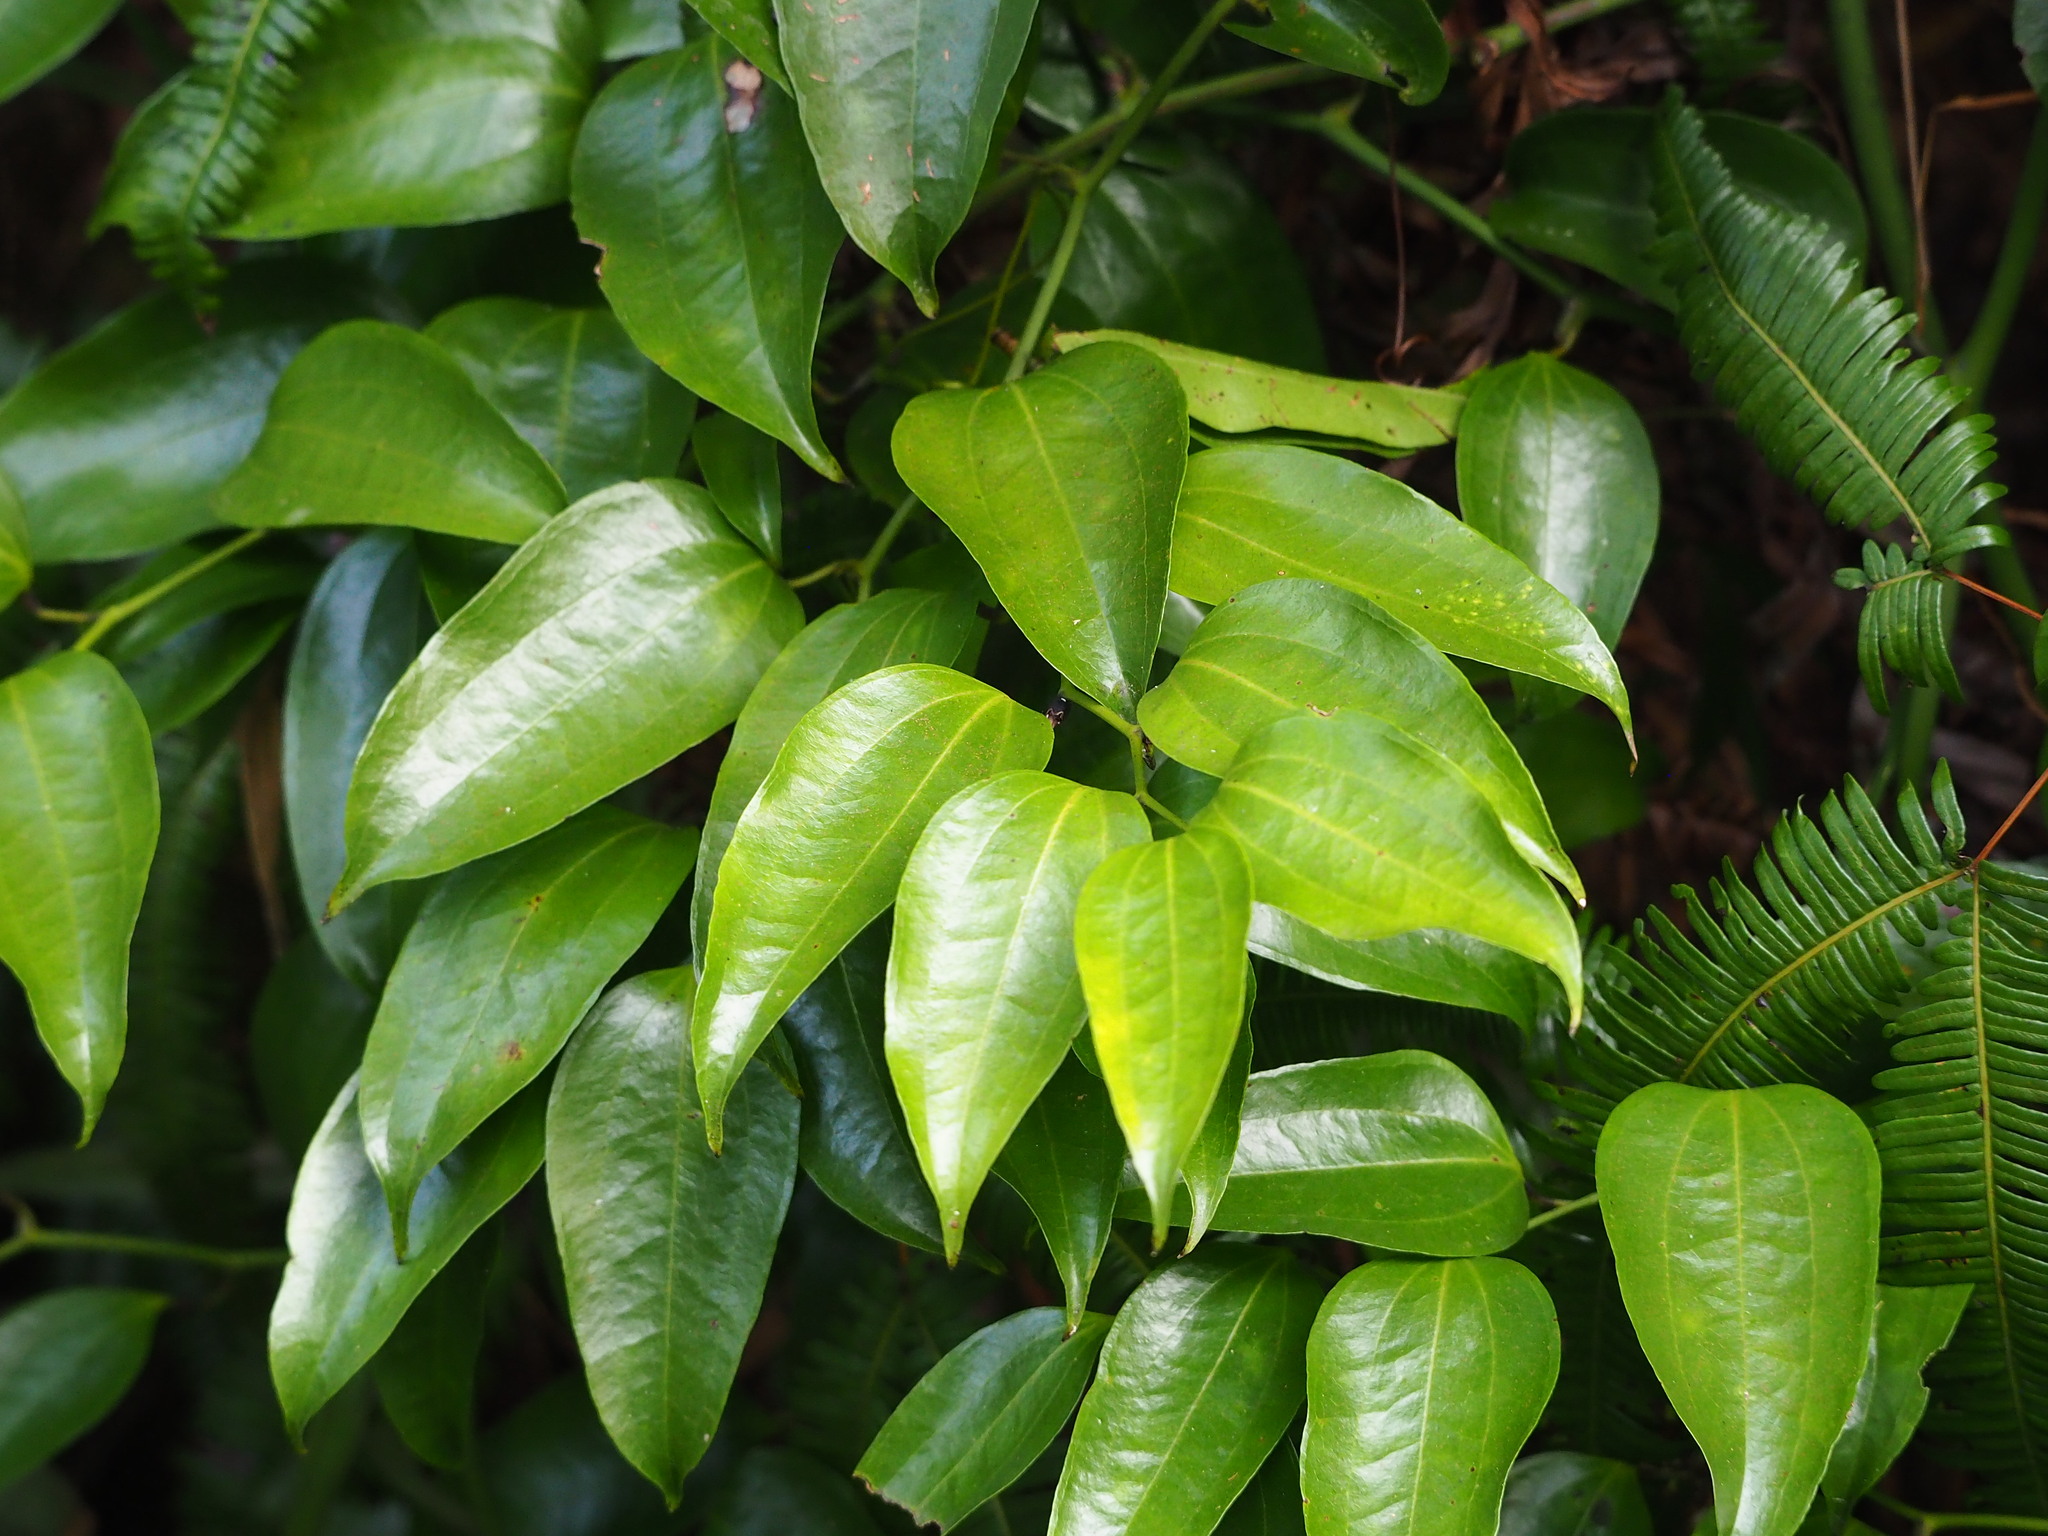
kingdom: Plantae
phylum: Tracheophyta
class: Liliopsida
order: Liliales
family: Smilacaceae
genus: Smilax
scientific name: Smilax lanceifolia
